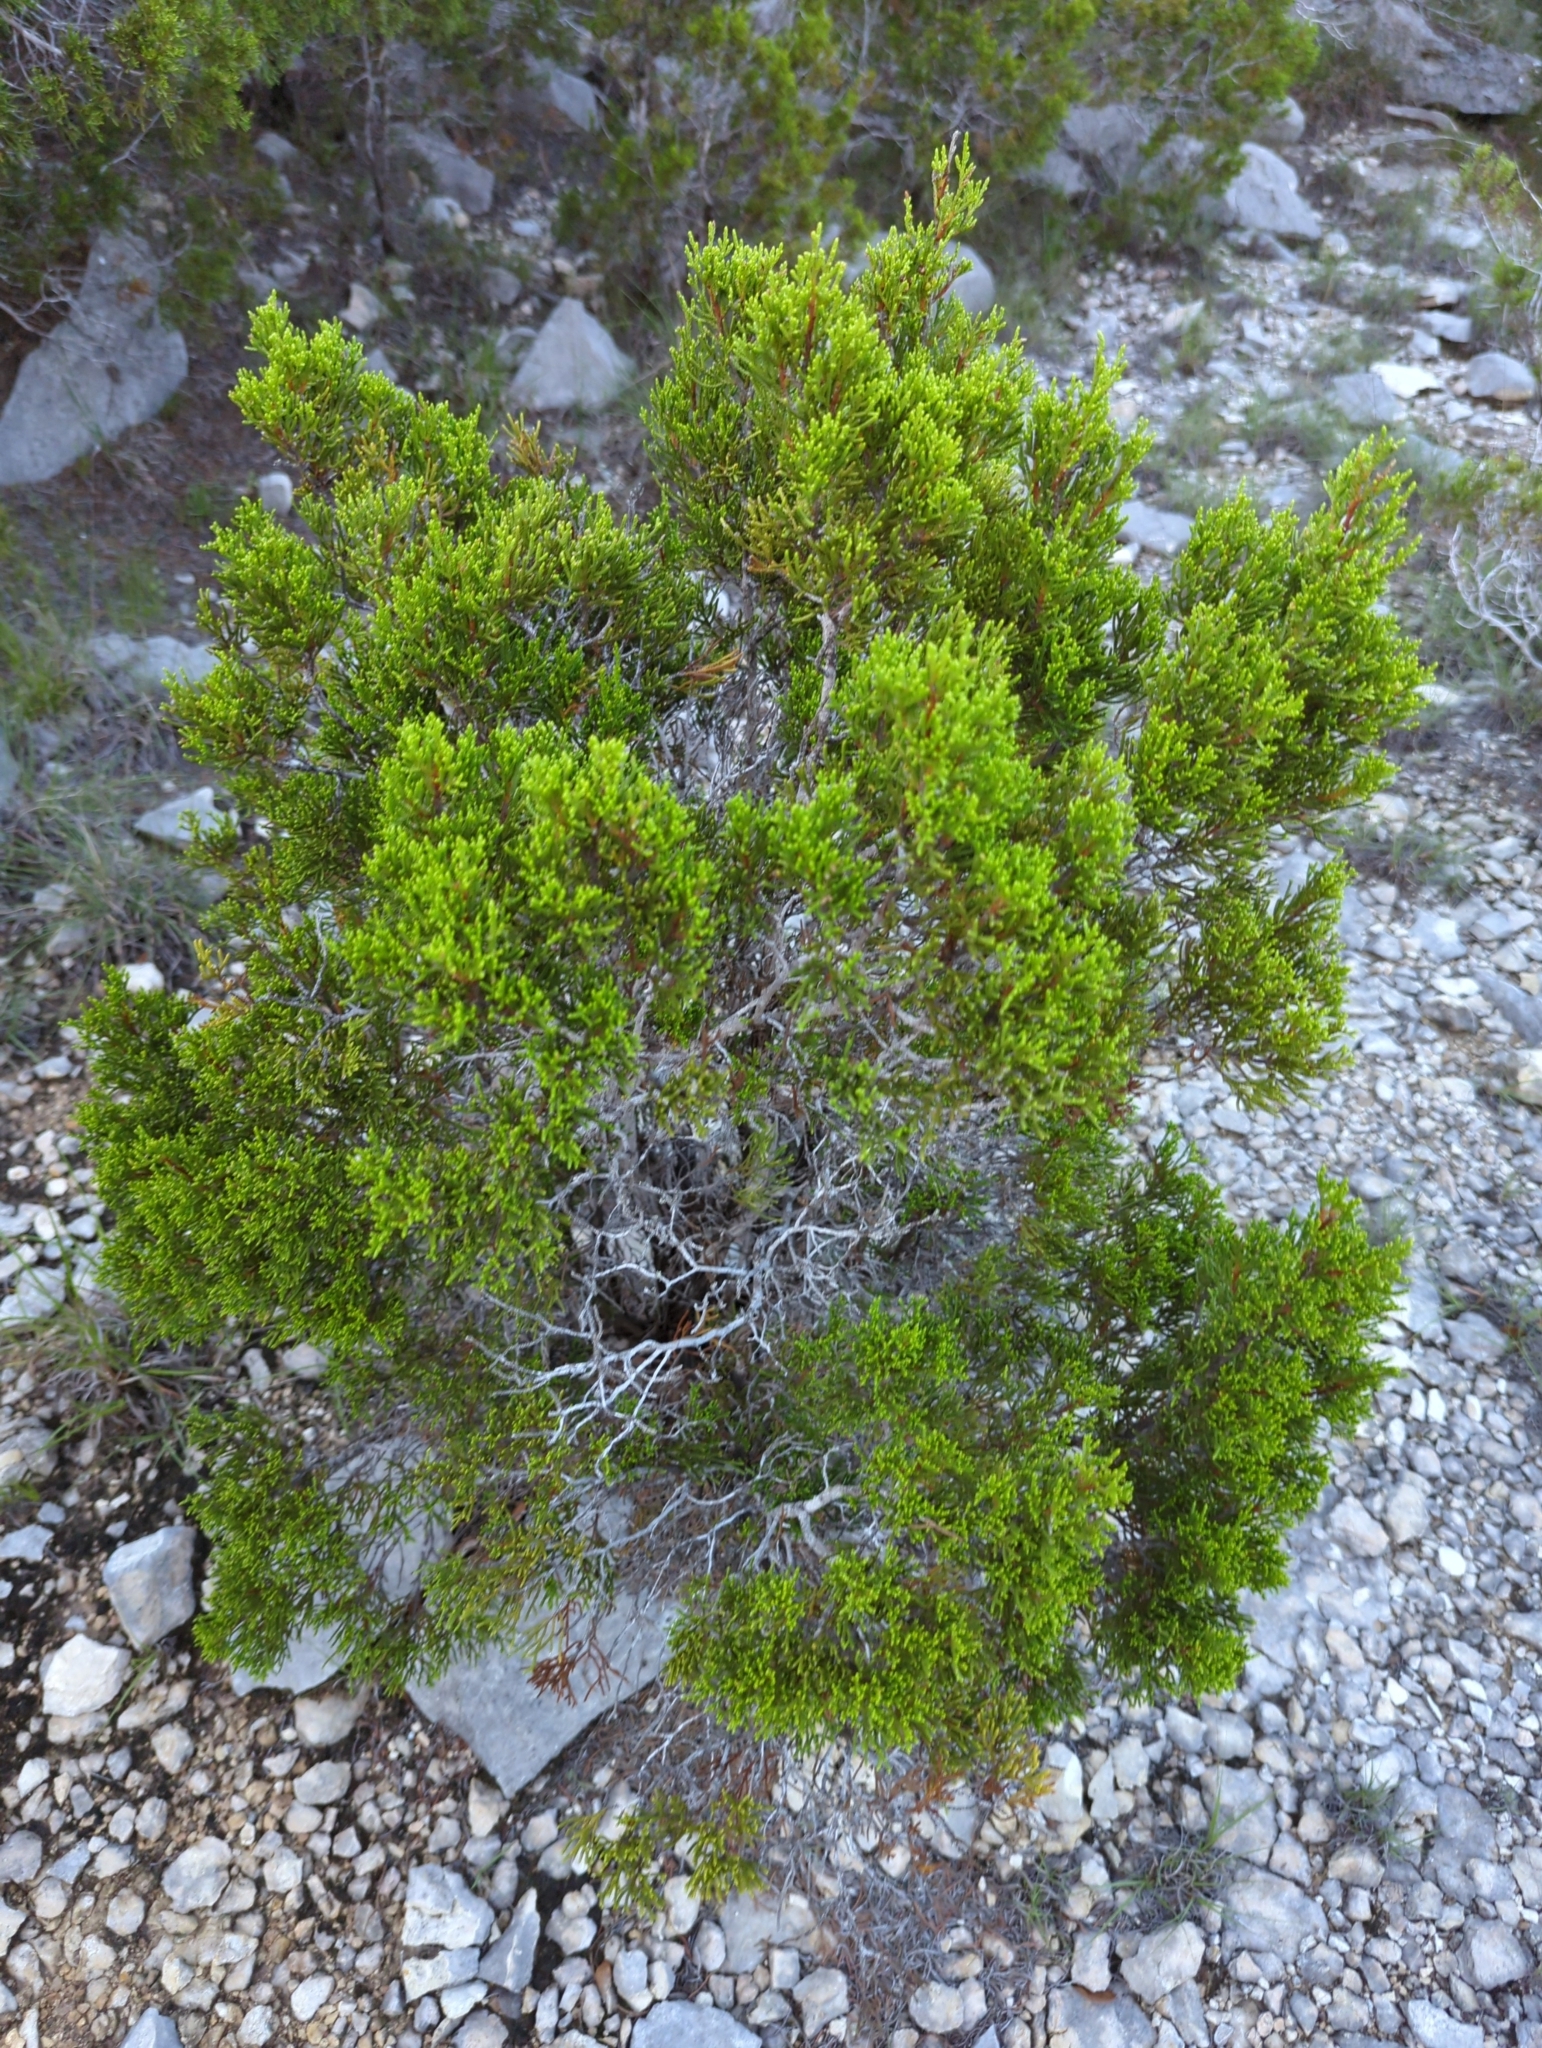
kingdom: Plantae
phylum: Tracheophyta
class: Pinopsida
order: Pinales
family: Cupressaceae
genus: Juniperus
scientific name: Juniperus ashei
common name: Mexican juniper
